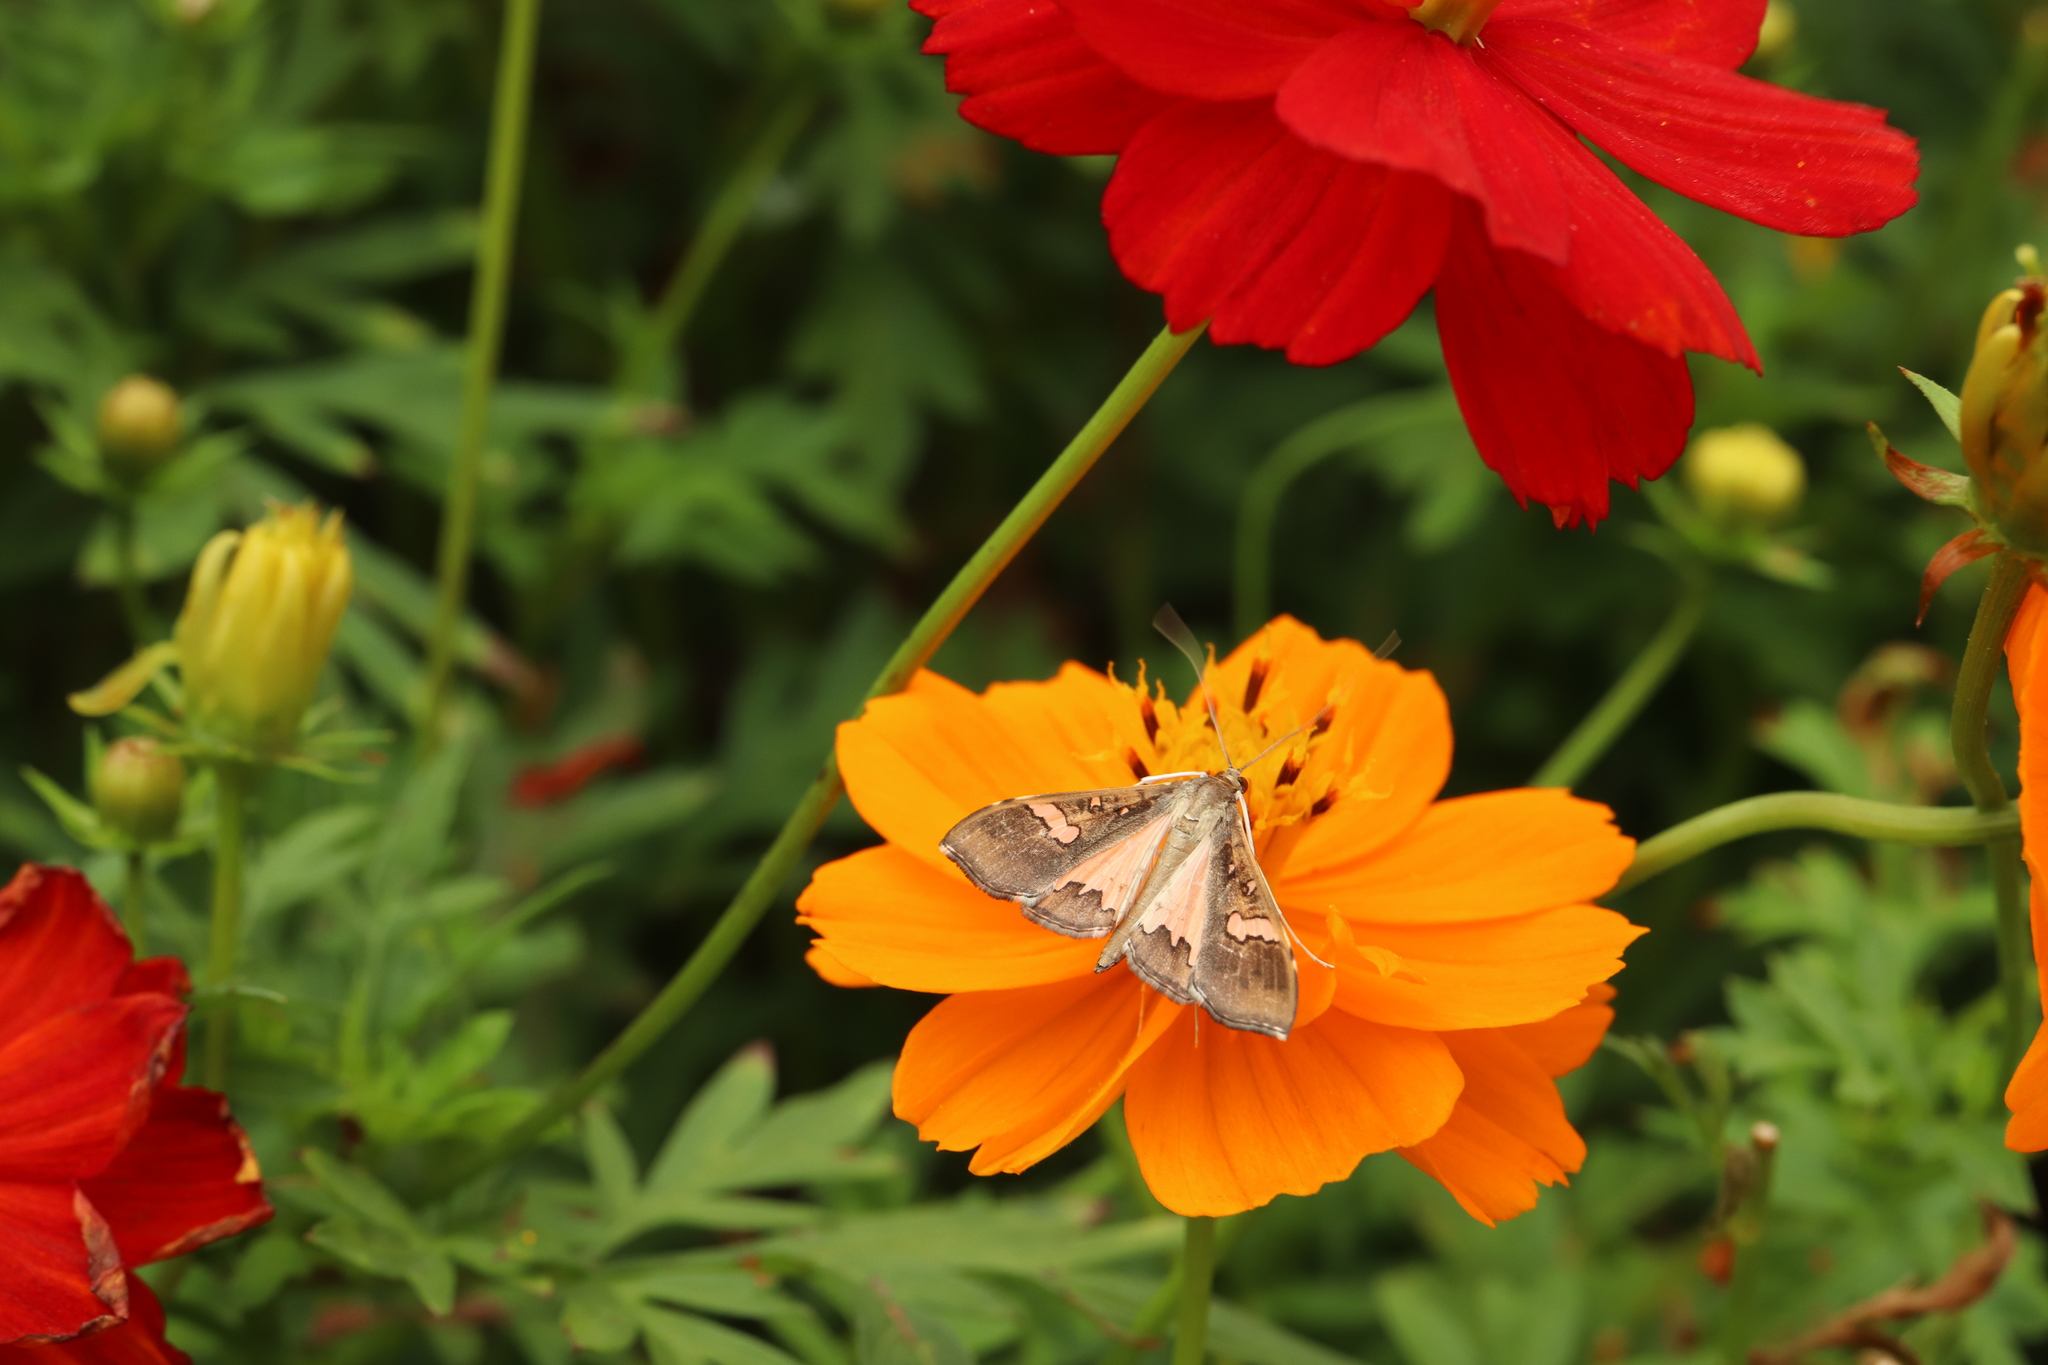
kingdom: Animalia
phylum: Arthropoda
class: Insecta
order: Lepidoptera
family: Crambidae
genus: Maruca
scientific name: Maruca vitrata
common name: Maruca pod borer
